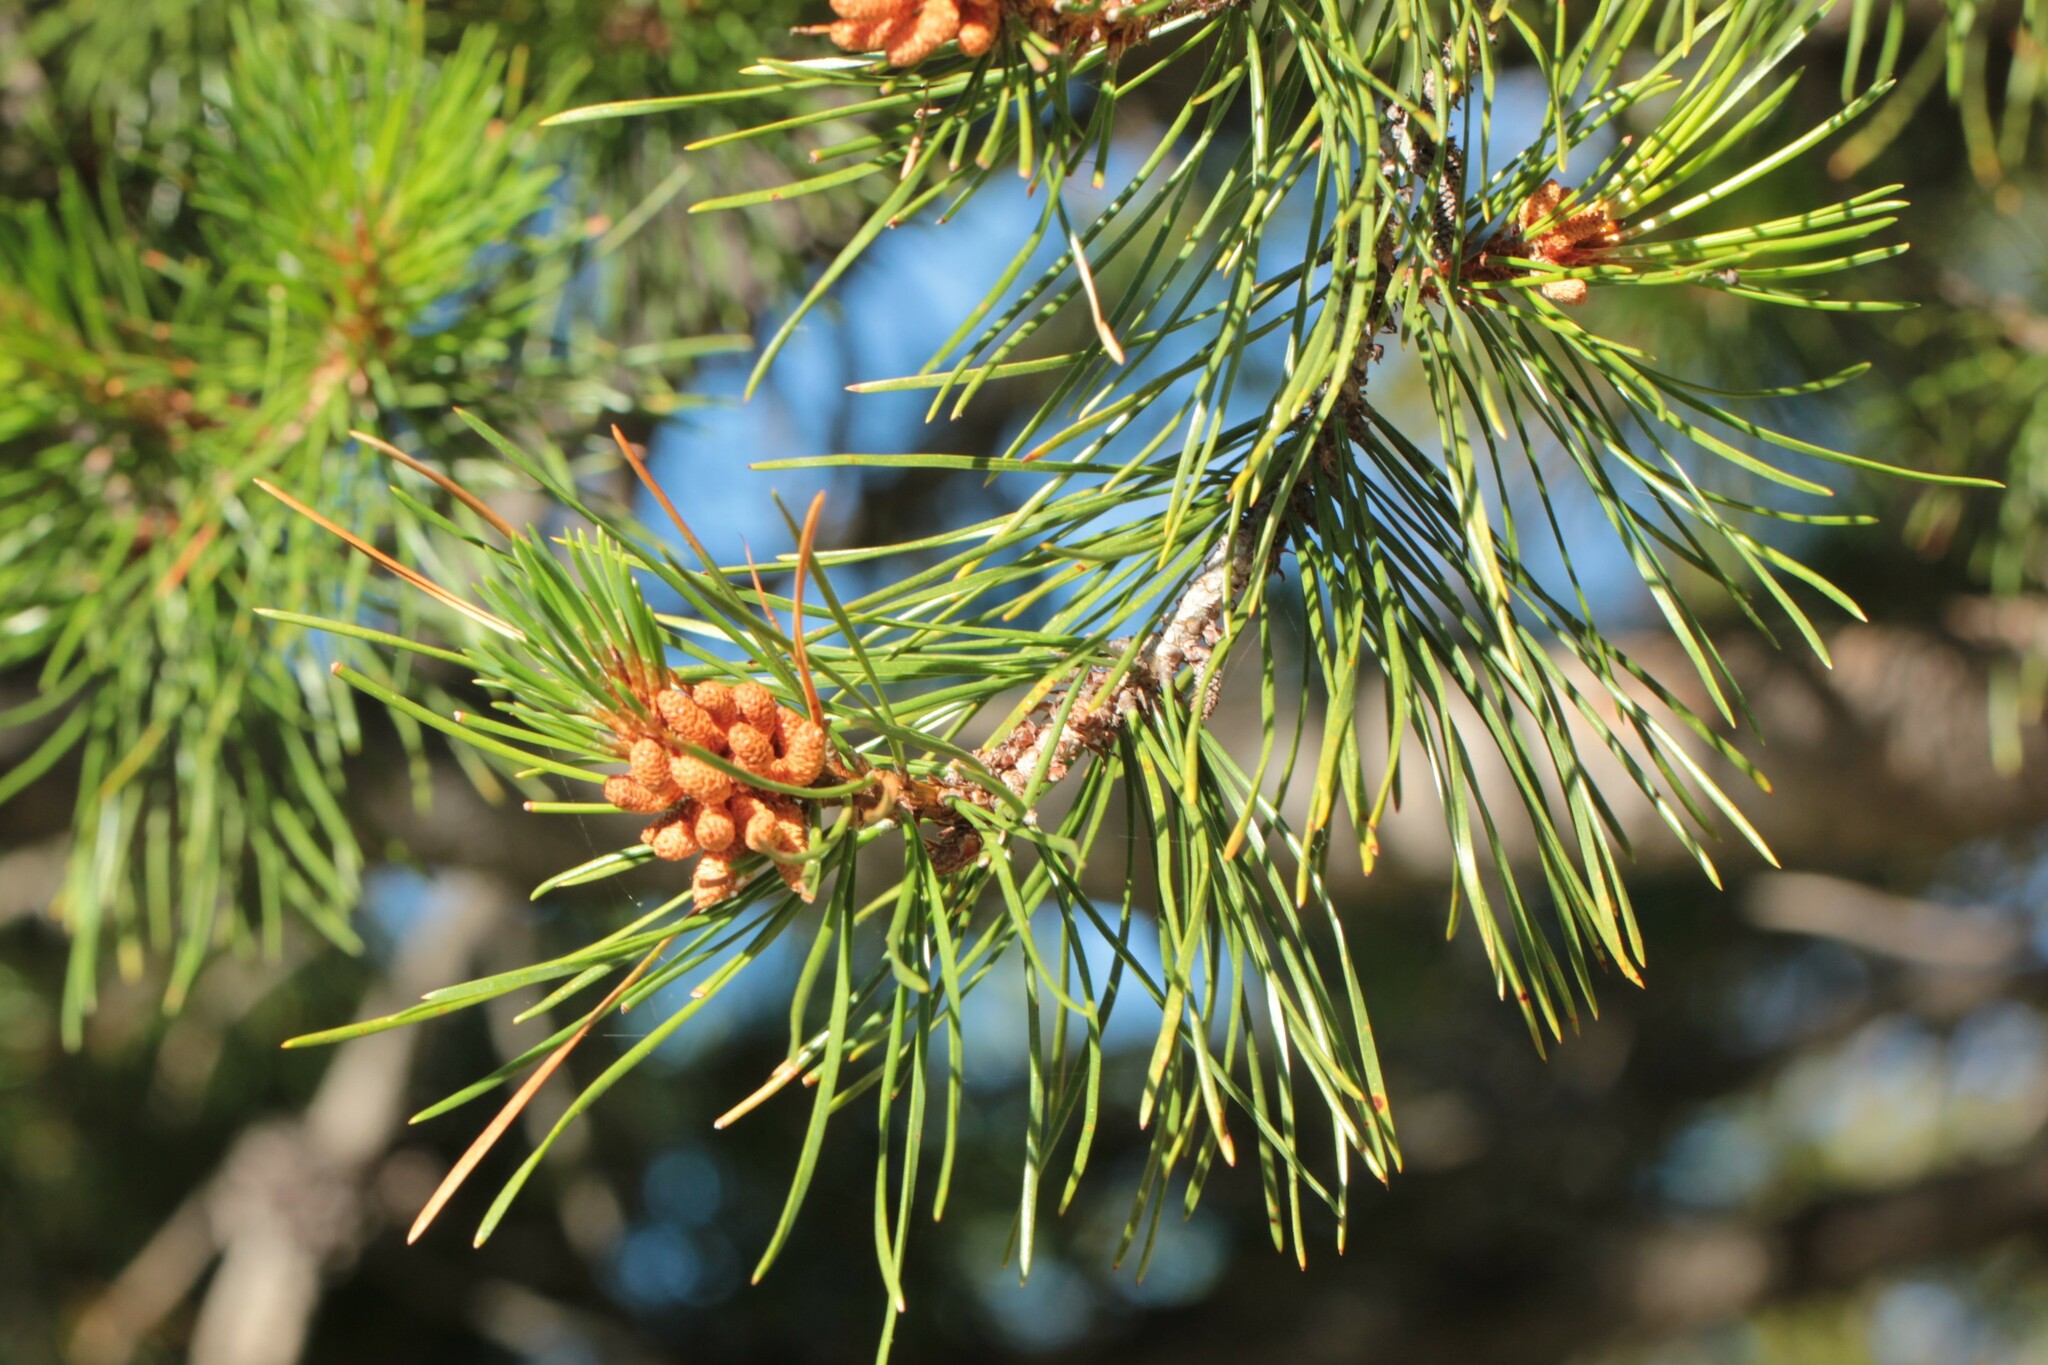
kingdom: Plantae
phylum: Tracheophyta
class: Pinopsida
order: Pinales
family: Pinaceae
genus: Pinus
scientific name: Pinus contorta
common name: Lodgepole pine
